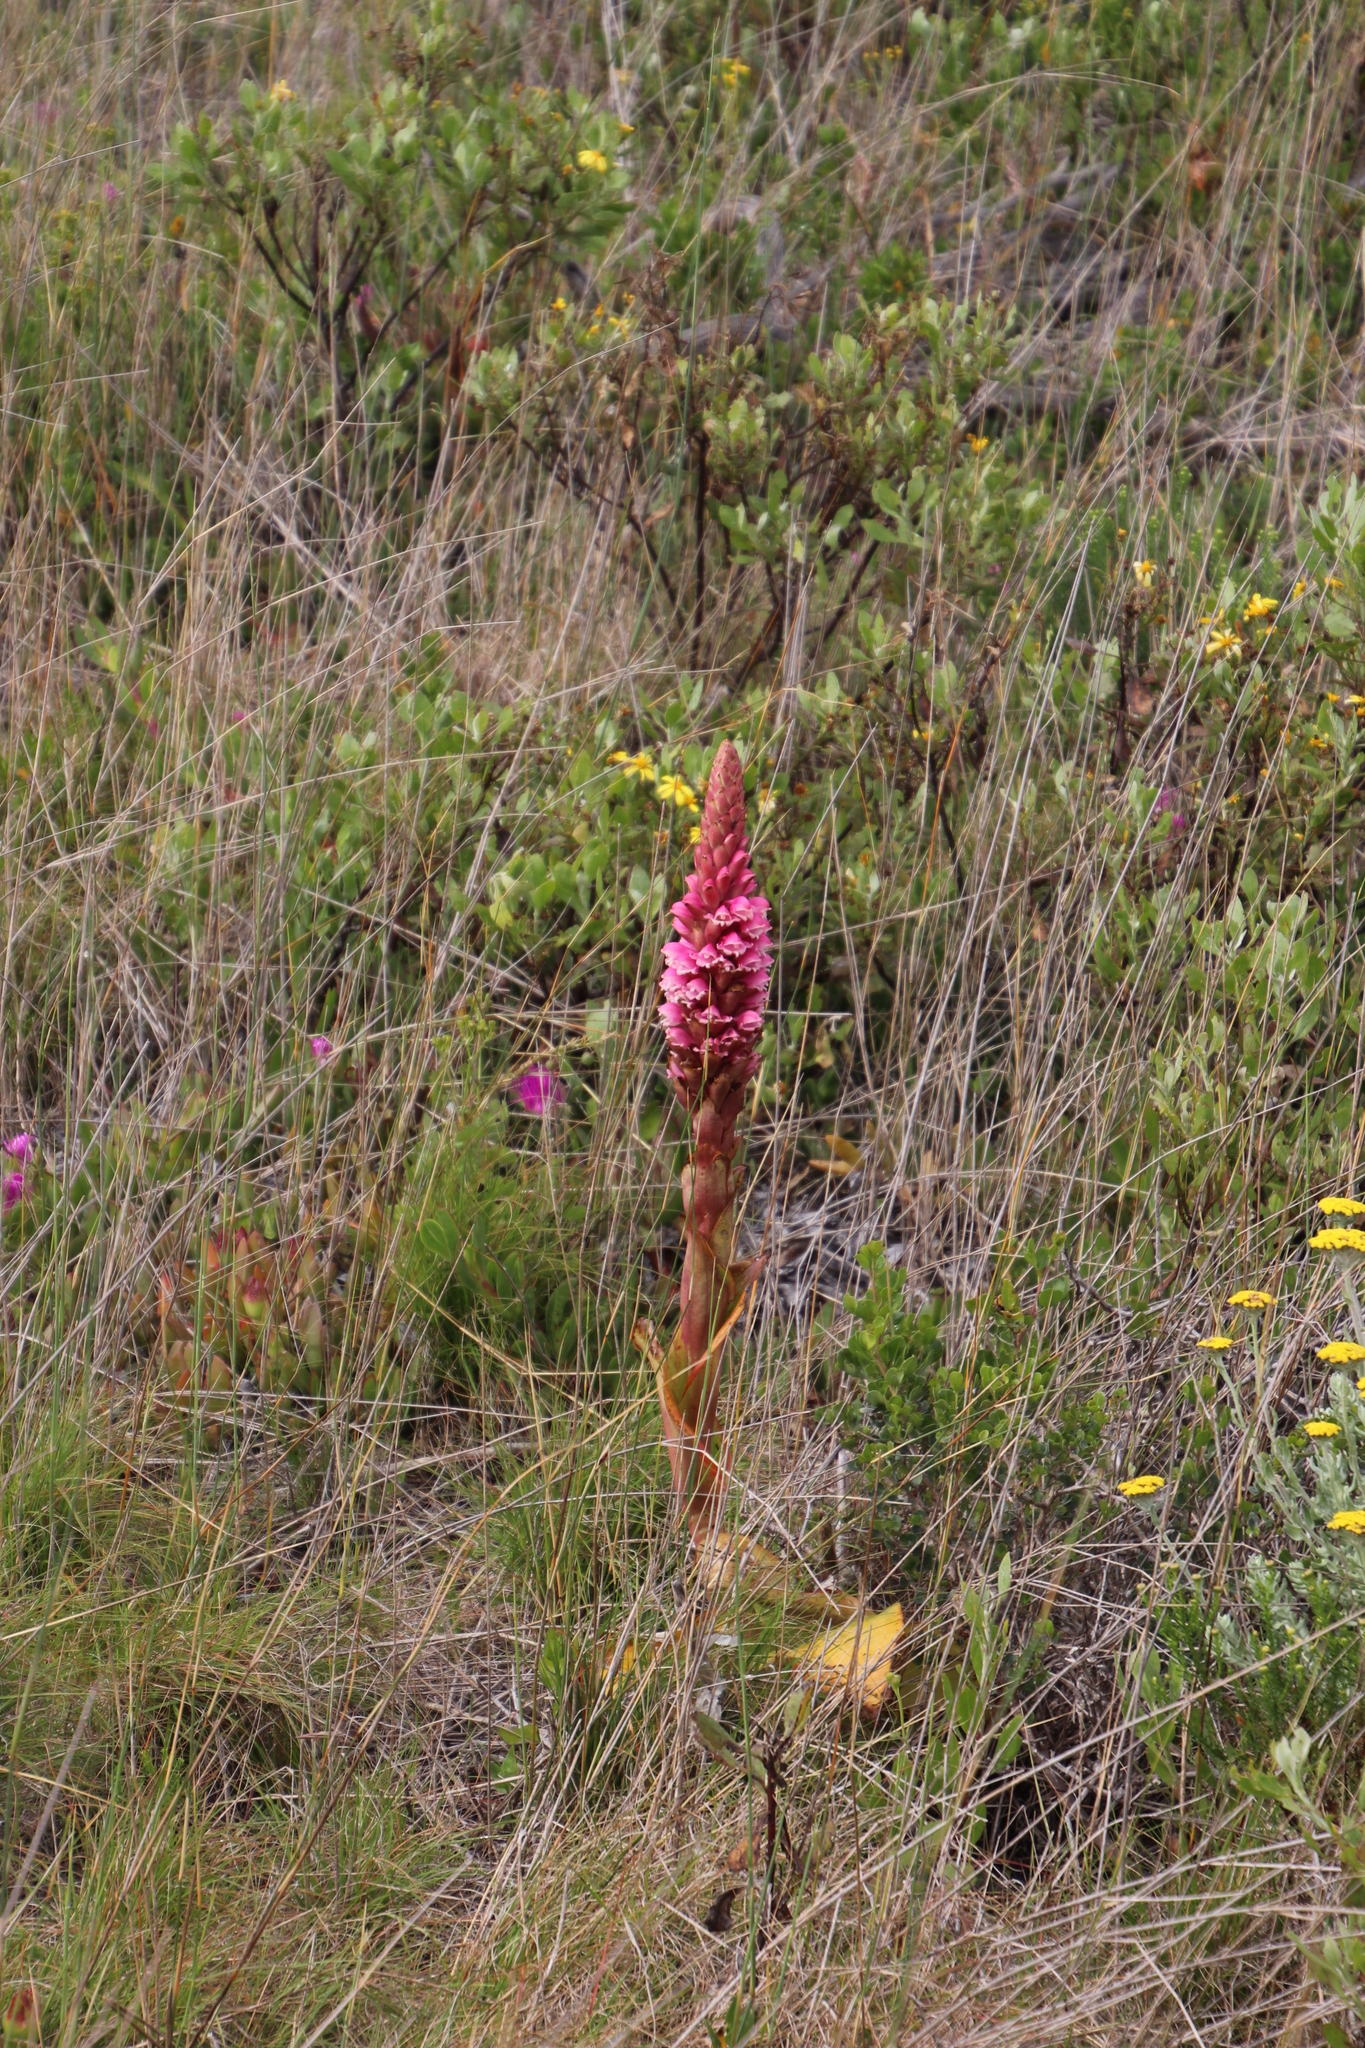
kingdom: Plantae
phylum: Tracheophyta
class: Liliopsida
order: Asparagales
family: Orchidaceae
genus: Satyrium
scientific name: Satyrium carneum
